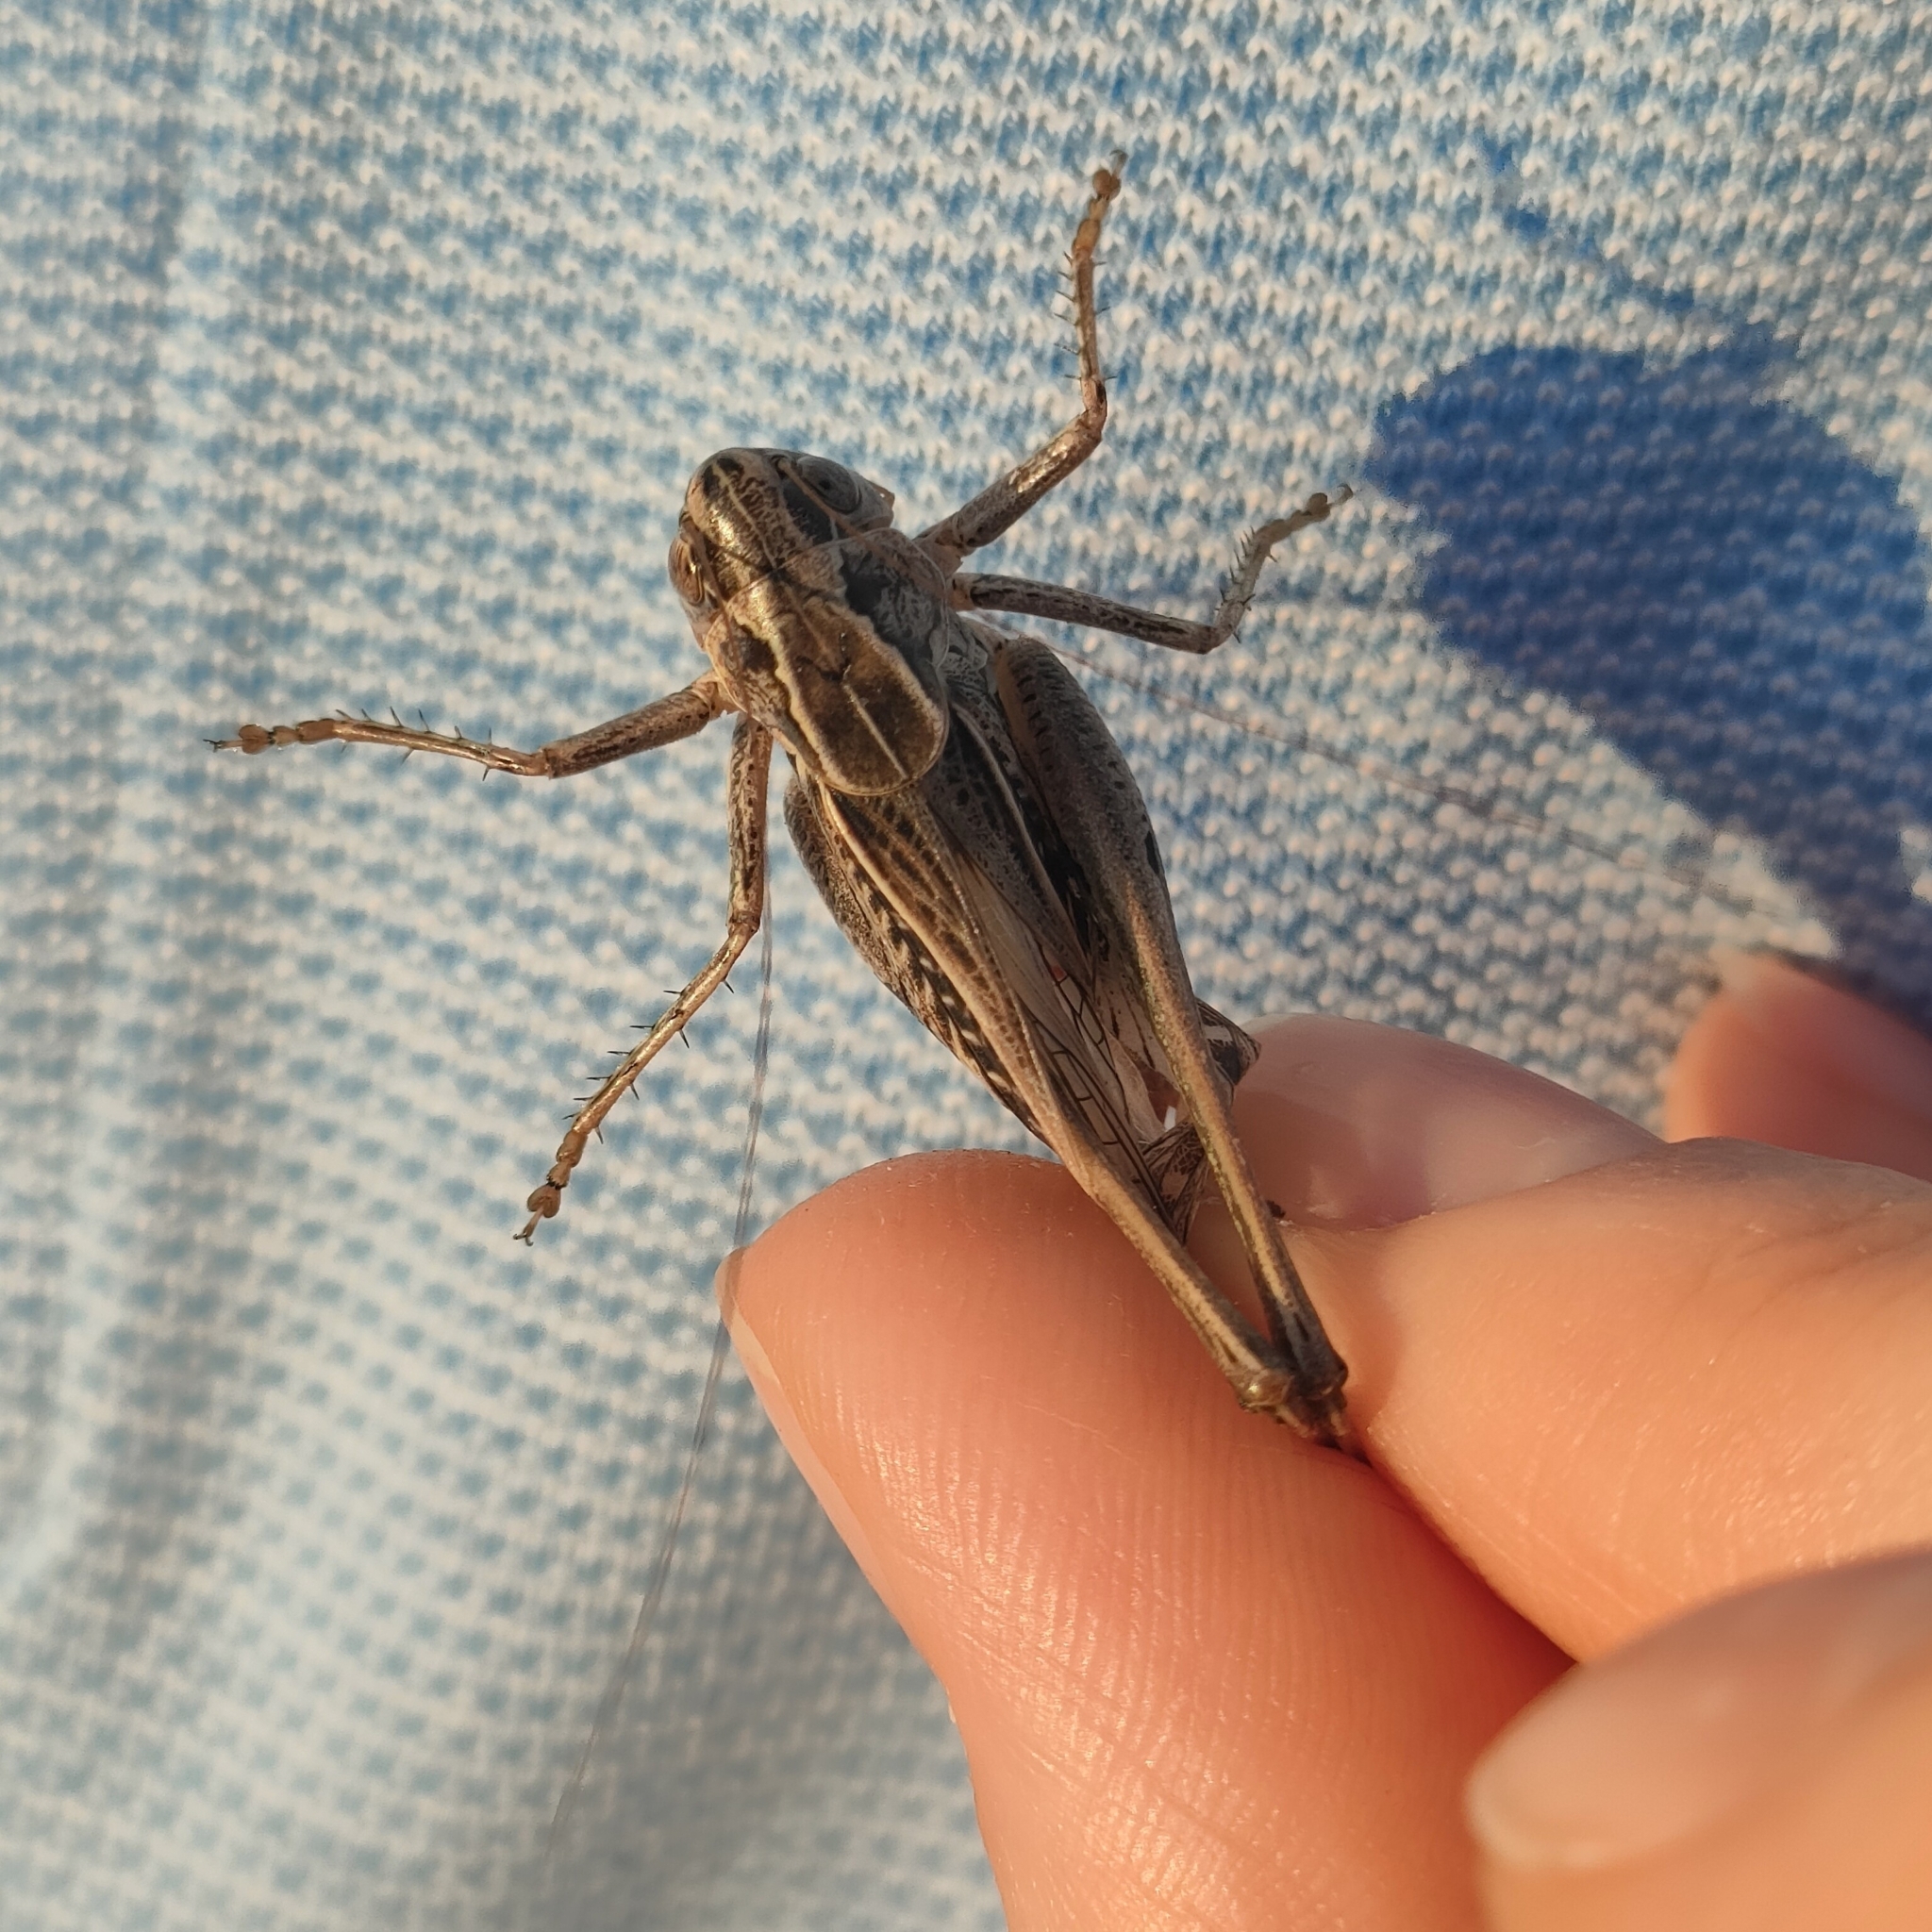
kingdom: Animalia
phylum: Arthropoda
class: Insecta
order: Orthoptera
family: Tettigoniidae
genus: Platycleis
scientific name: Platycleis affinis
